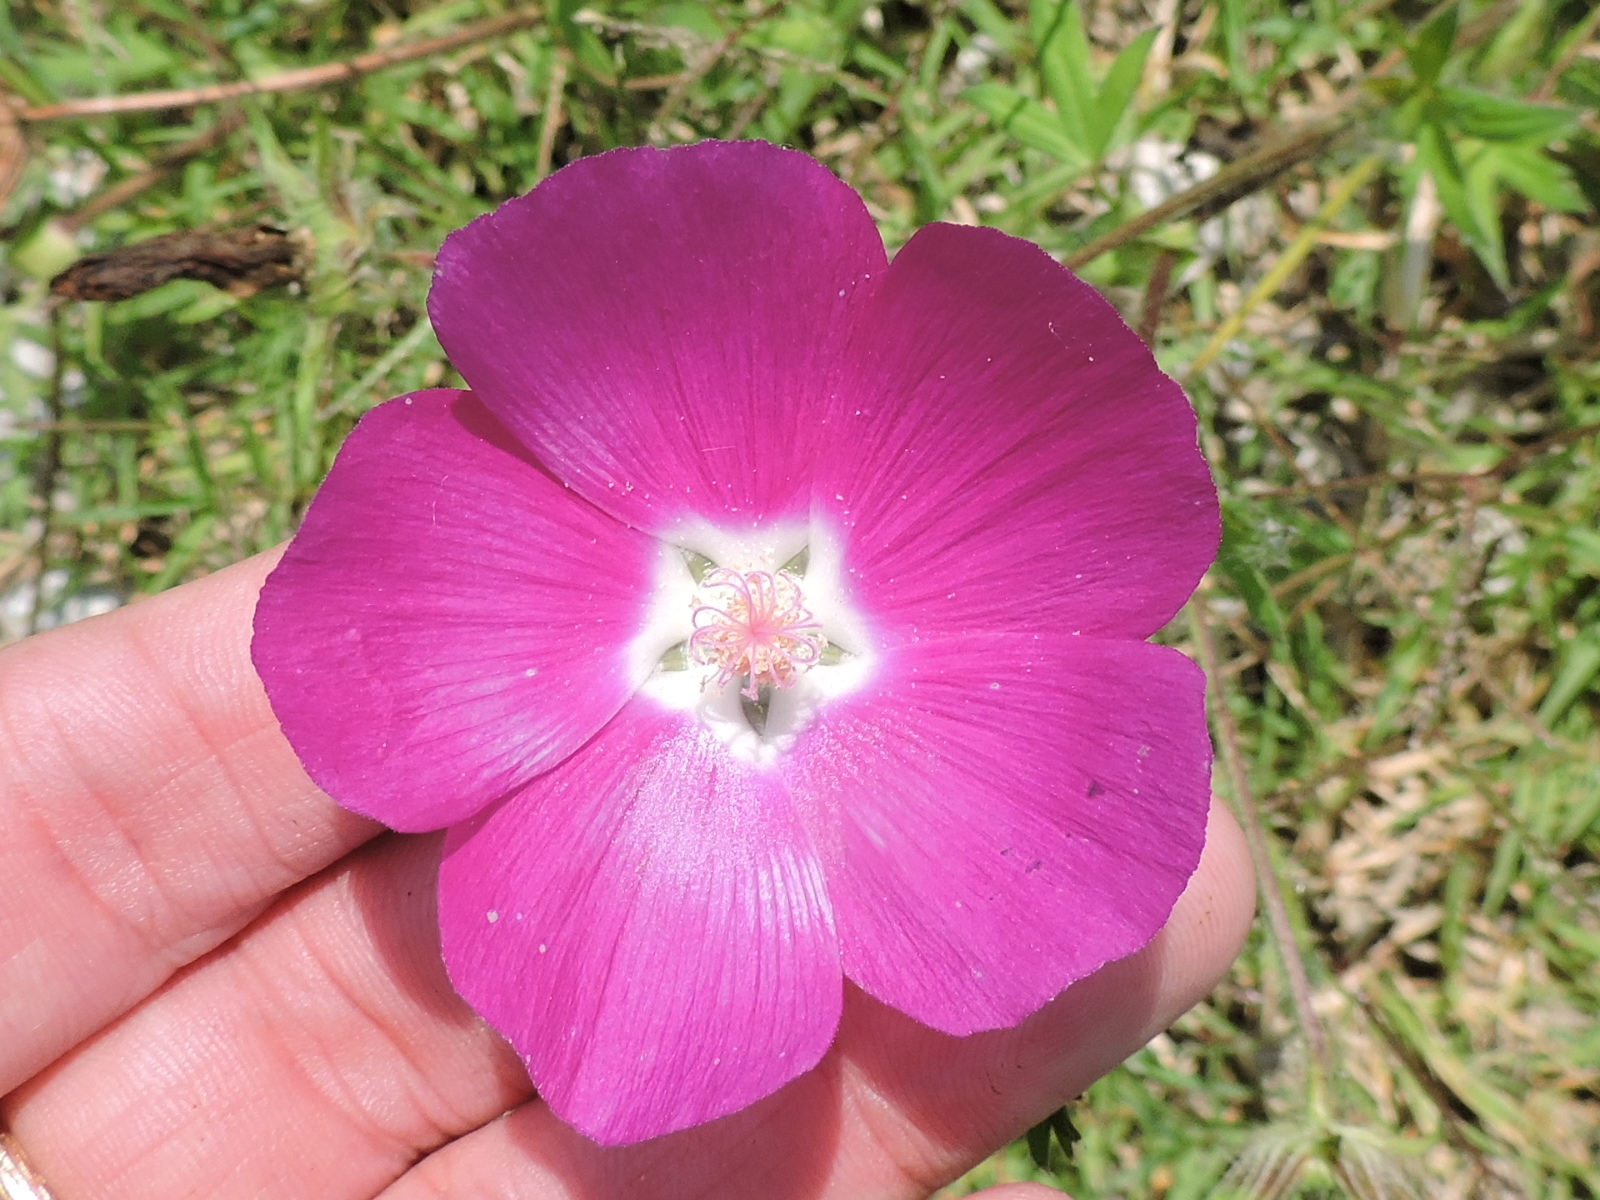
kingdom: Plantae
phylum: Tracheophyta
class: Magnoliopsida
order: Malvales
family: Malvaceae
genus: Callirhoe
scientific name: Callirhoe involucrata
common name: Purple poppy-mallow
